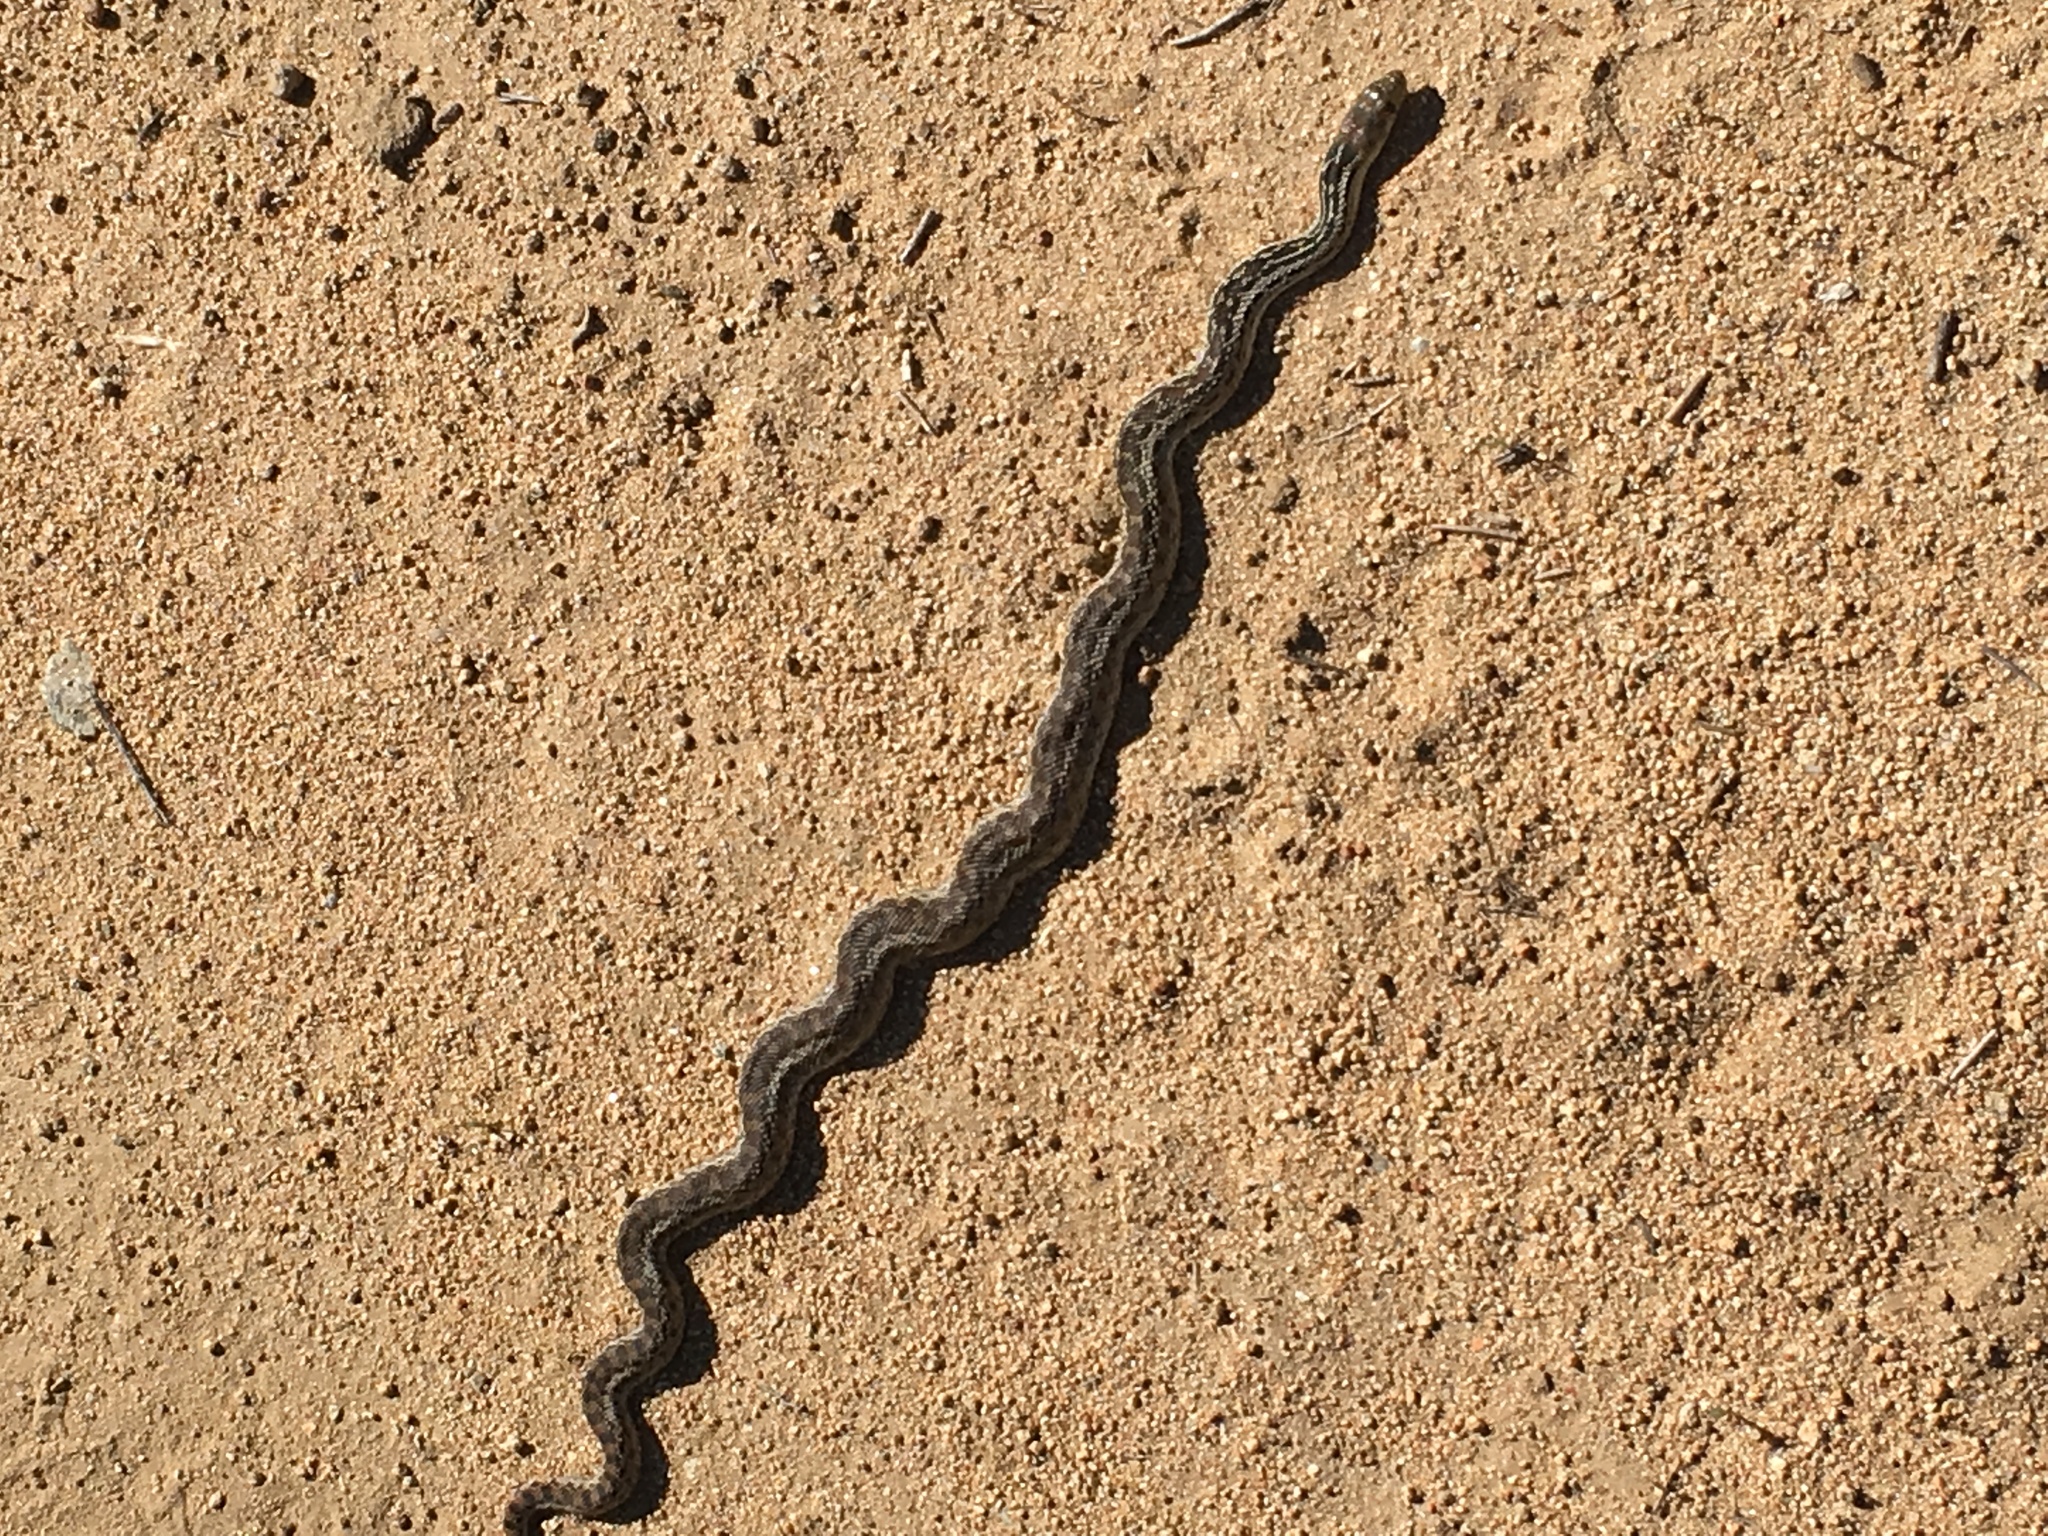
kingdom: Animalia
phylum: Chordata
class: Squamata
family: Colubridae
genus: Pituophis
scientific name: Pituophis catenifer
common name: Gopher snake
